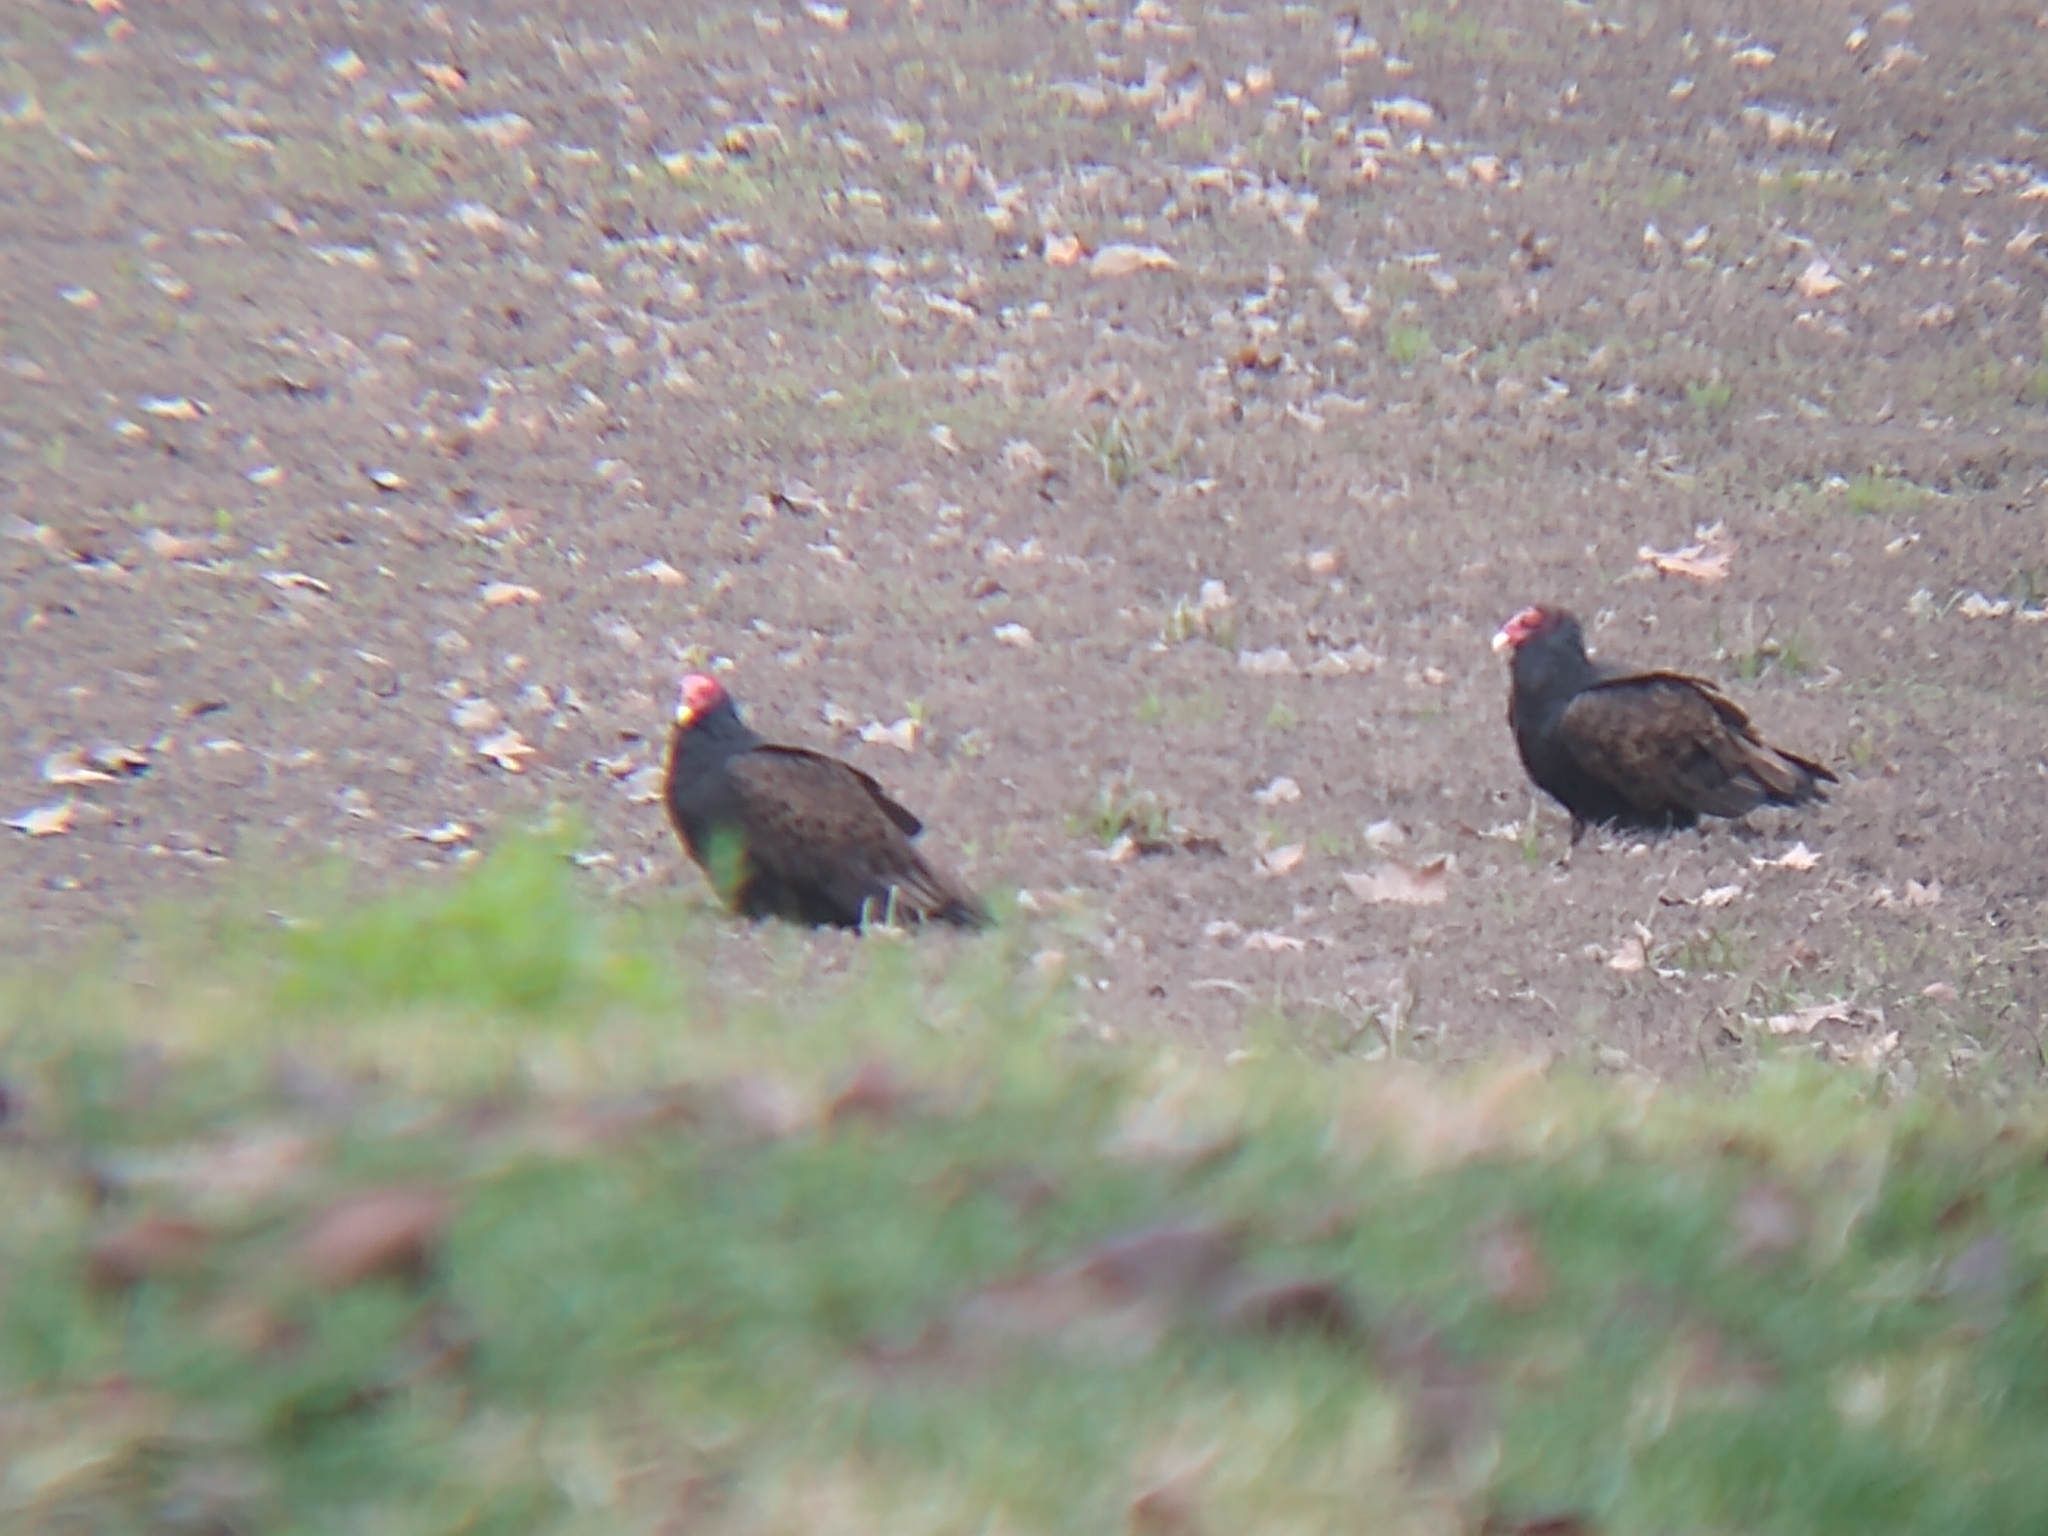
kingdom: Animalia
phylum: Chordata
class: Aves
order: Accipitriformes
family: Cathartidae
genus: Cathartes
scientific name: Cathartes aura
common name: Turkey vulture
